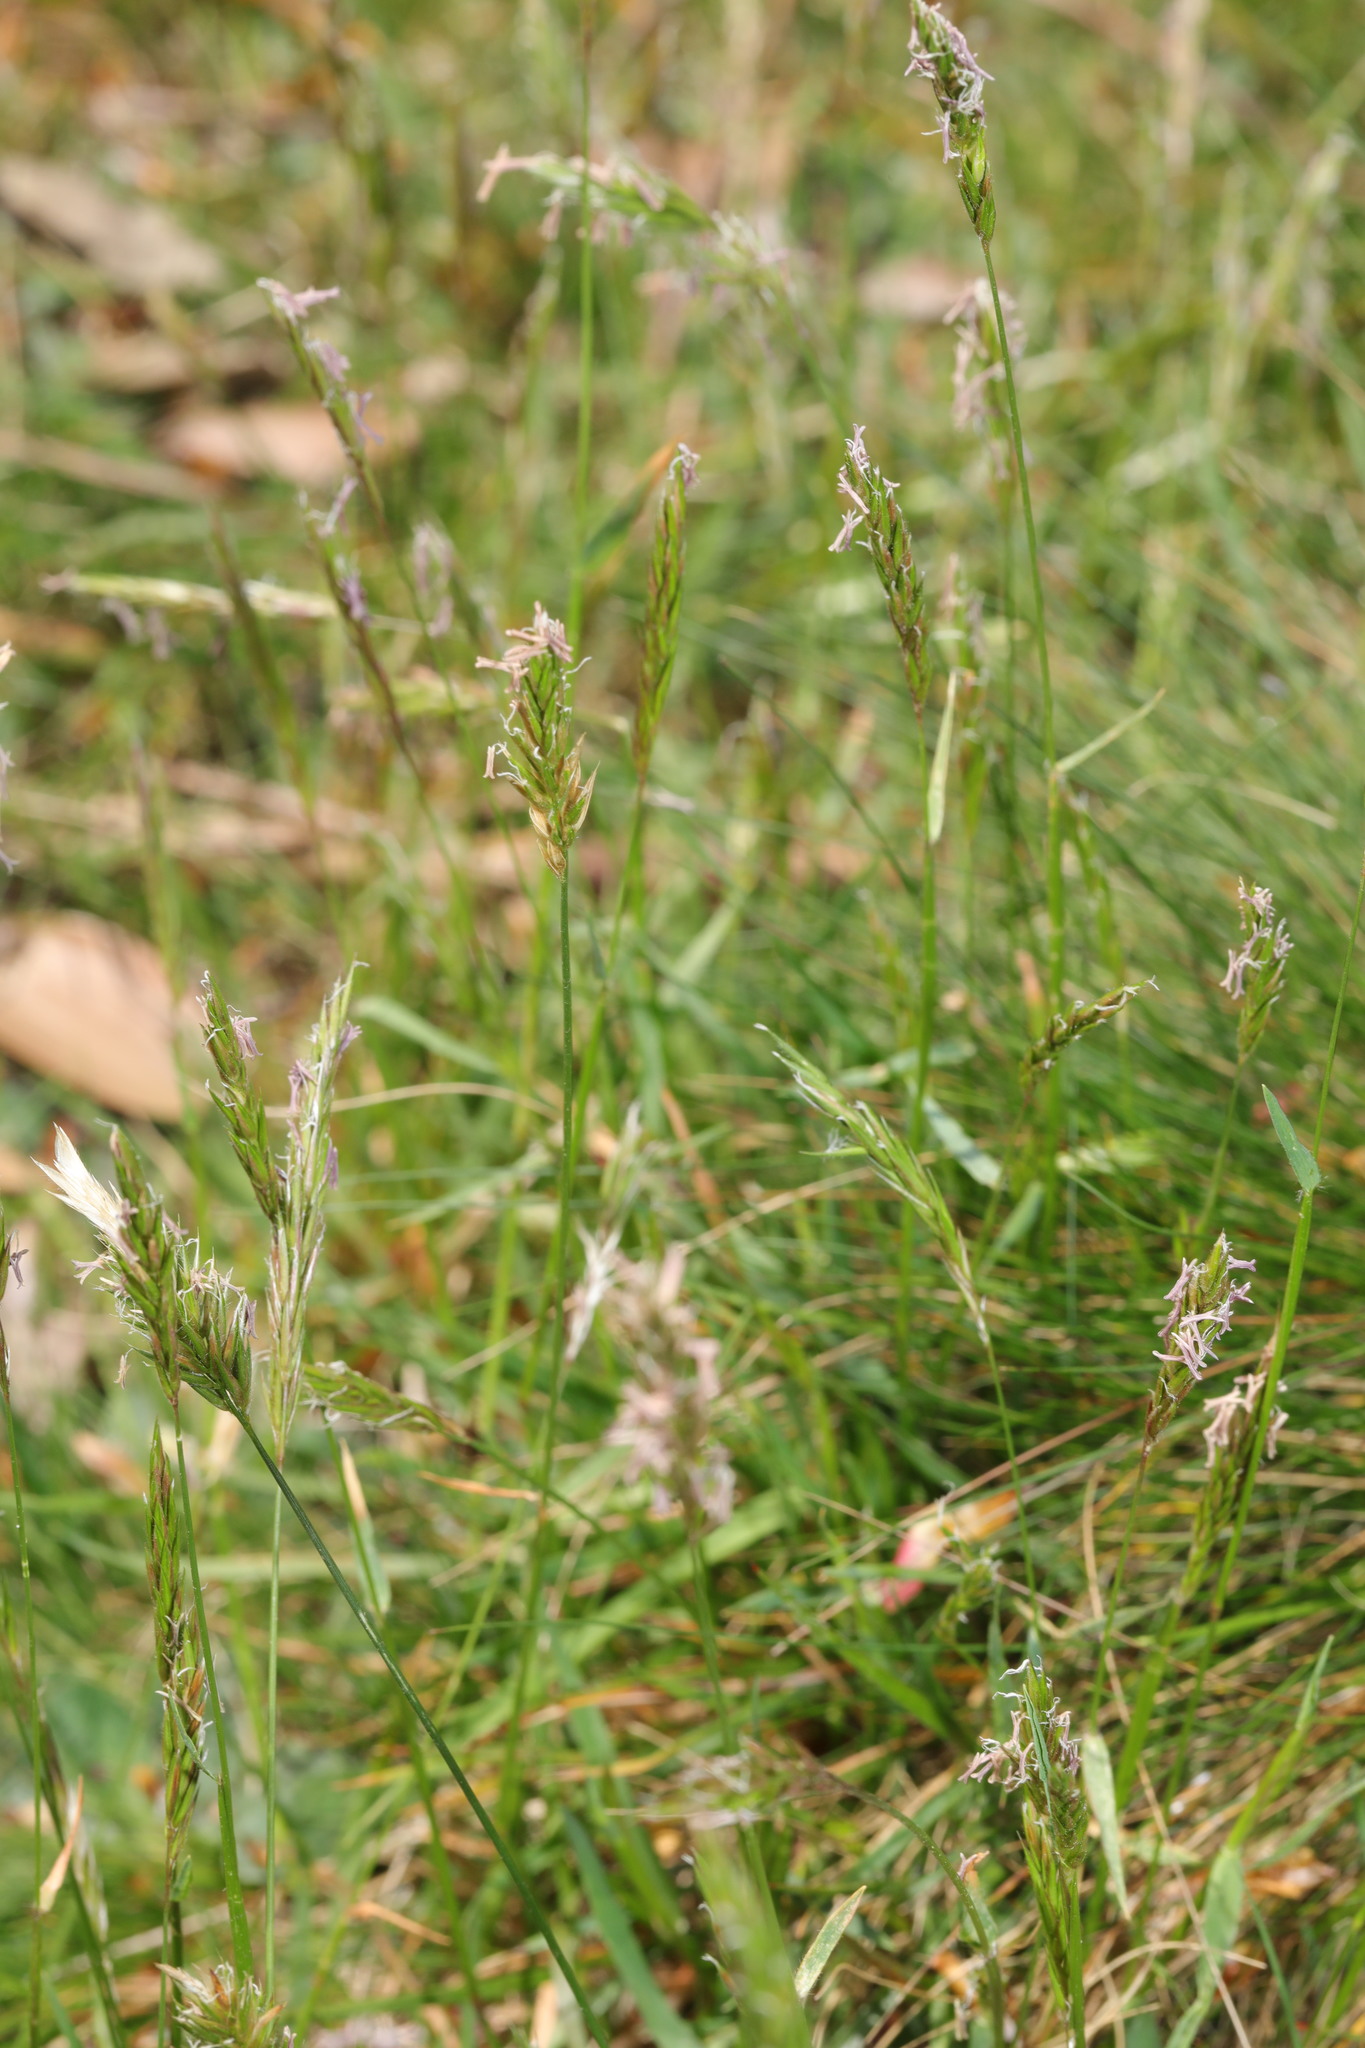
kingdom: Plantae
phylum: Tracheophyta
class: Liliopsida
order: Poales
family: Poaceae
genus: Anthoxanthum
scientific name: Anthoxanthum odoratum
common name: Sweet vernalgrass
